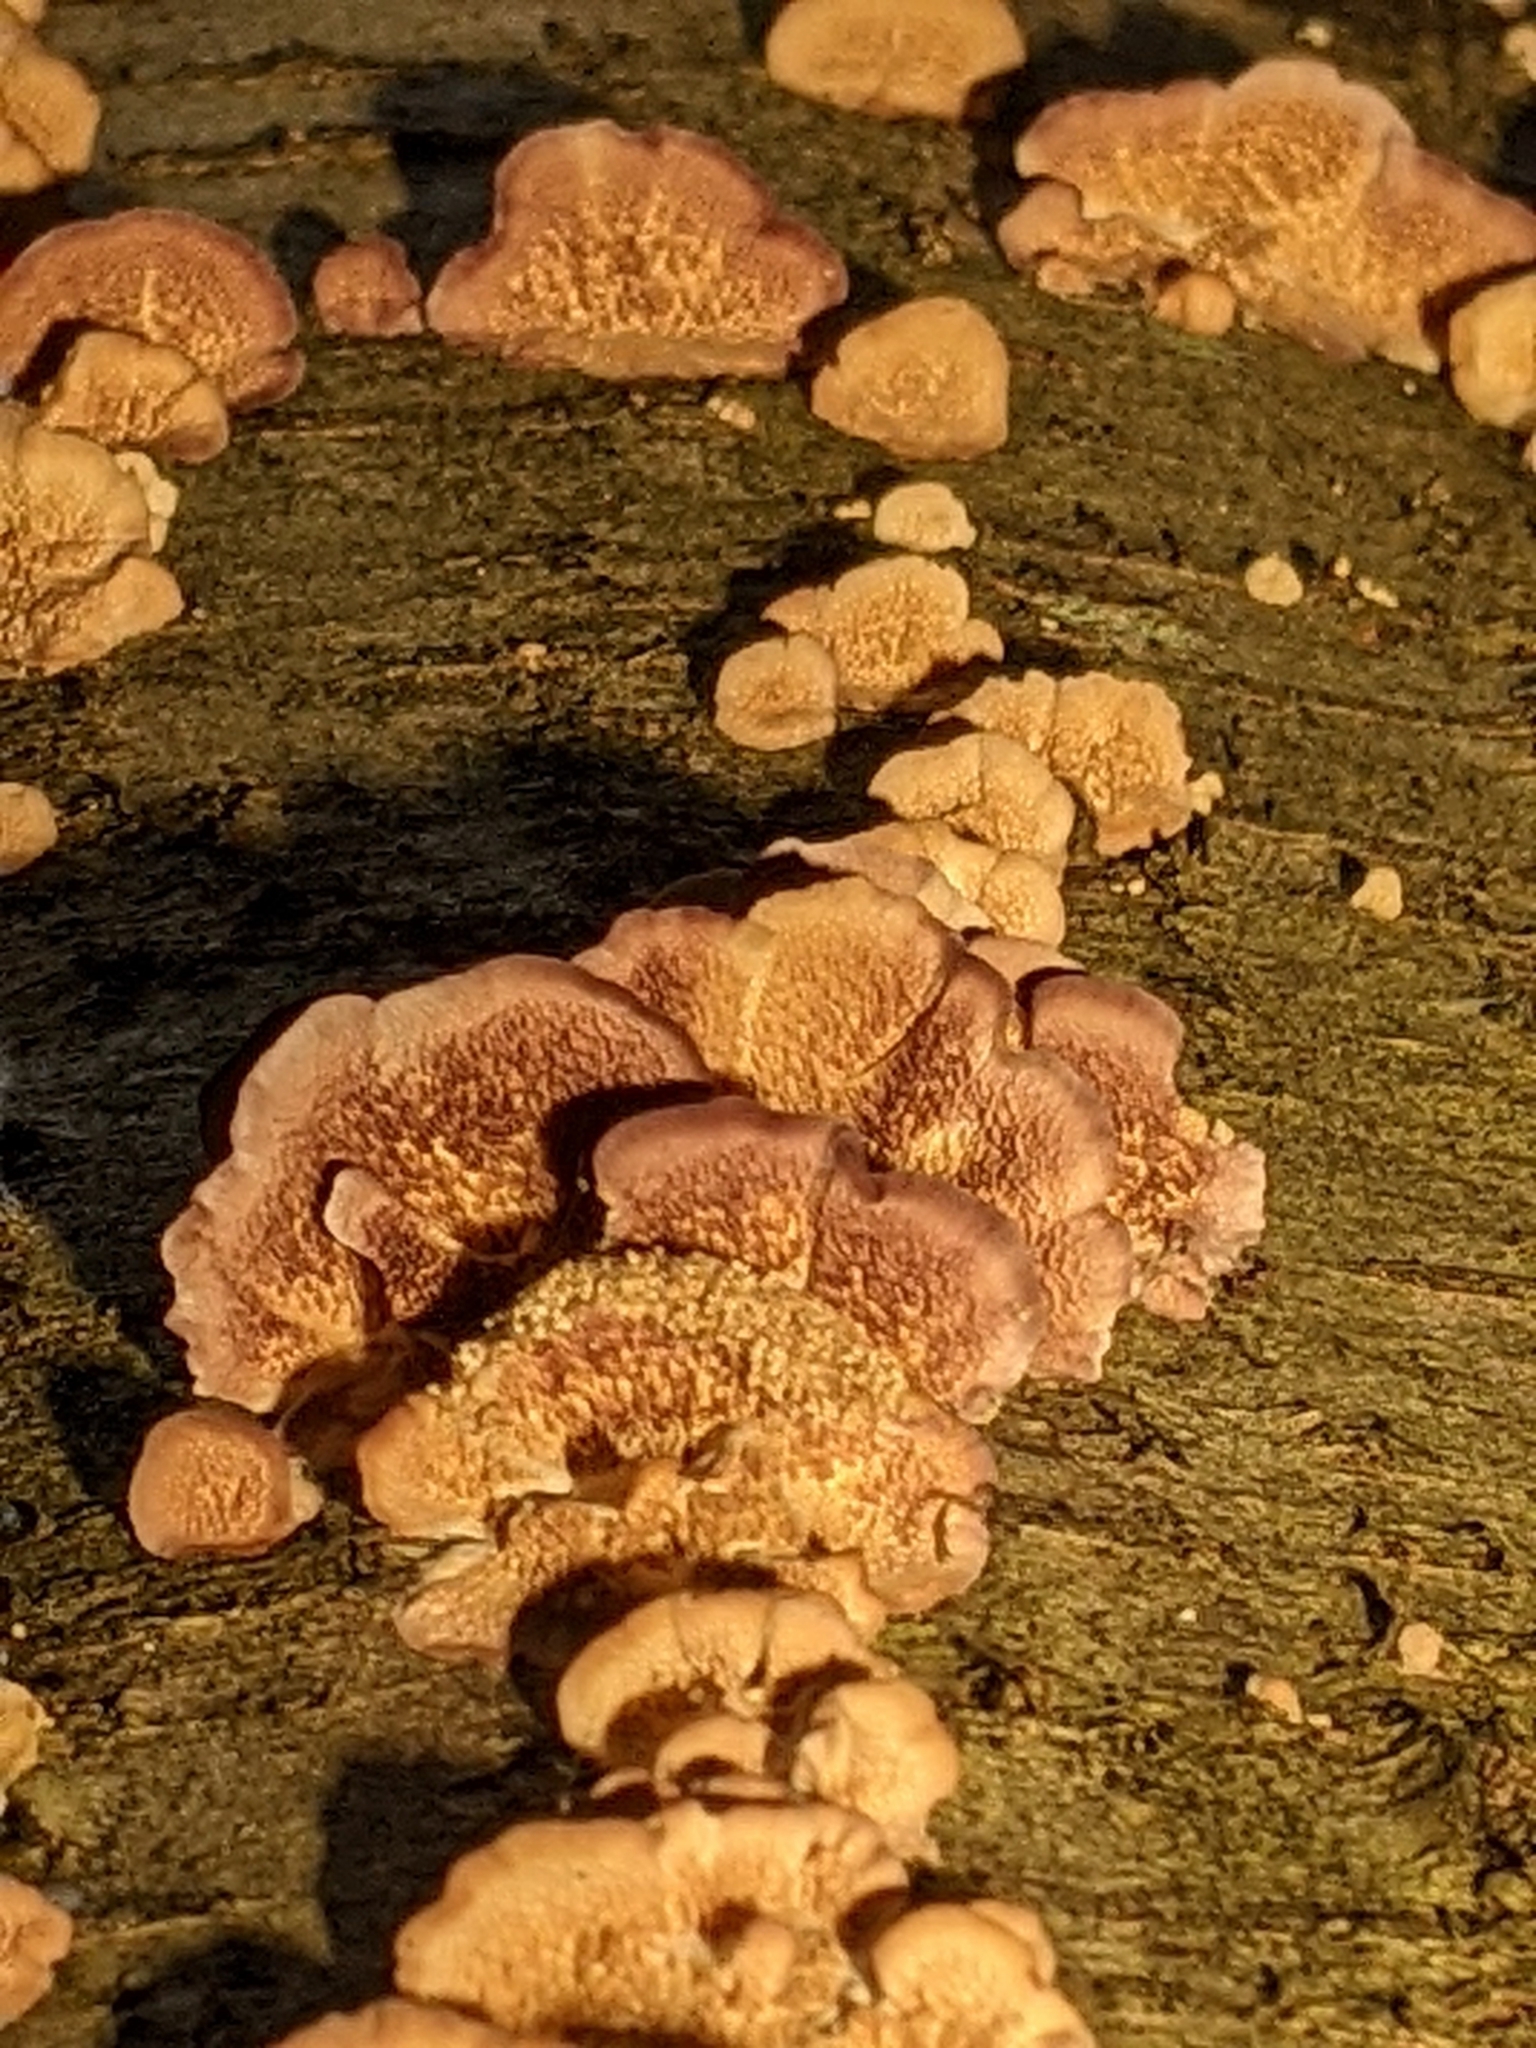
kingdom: Fungi
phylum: Basidiomycota
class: Agaricomycetes
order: Hymenochaetales
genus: Trichaptum
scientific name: Trichaptum biforme
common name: Violet-toothed polypore
